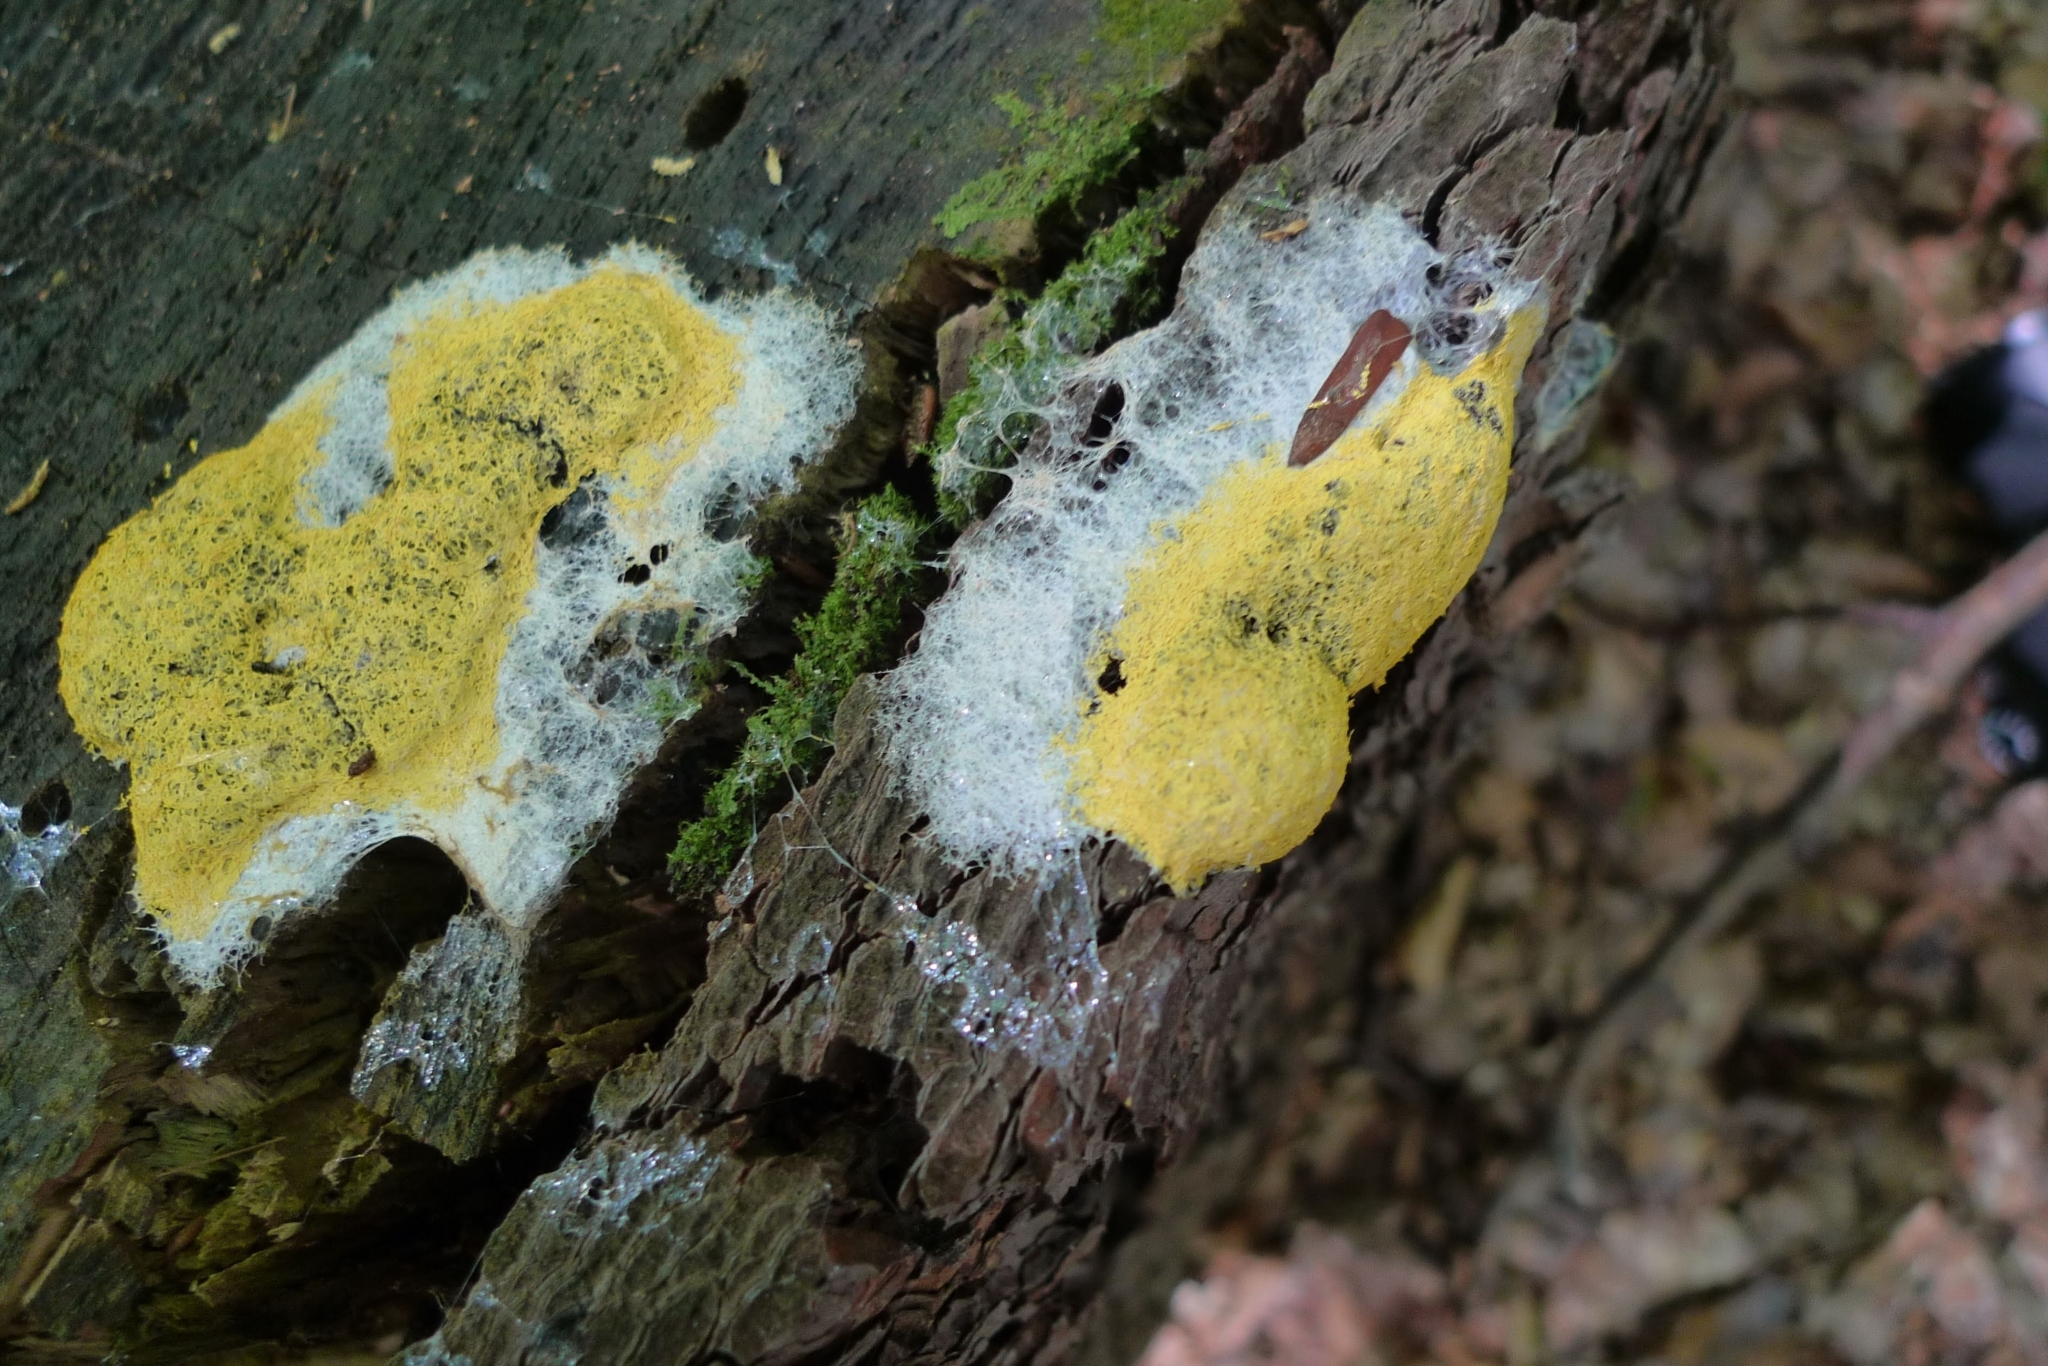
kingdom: Protozoa
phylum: Mycetozoa
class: Myxomycetes
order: Physarales
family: Physaraceae
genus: Fuligo
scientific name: Fuligo septica
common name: Dog vomit slime mold
